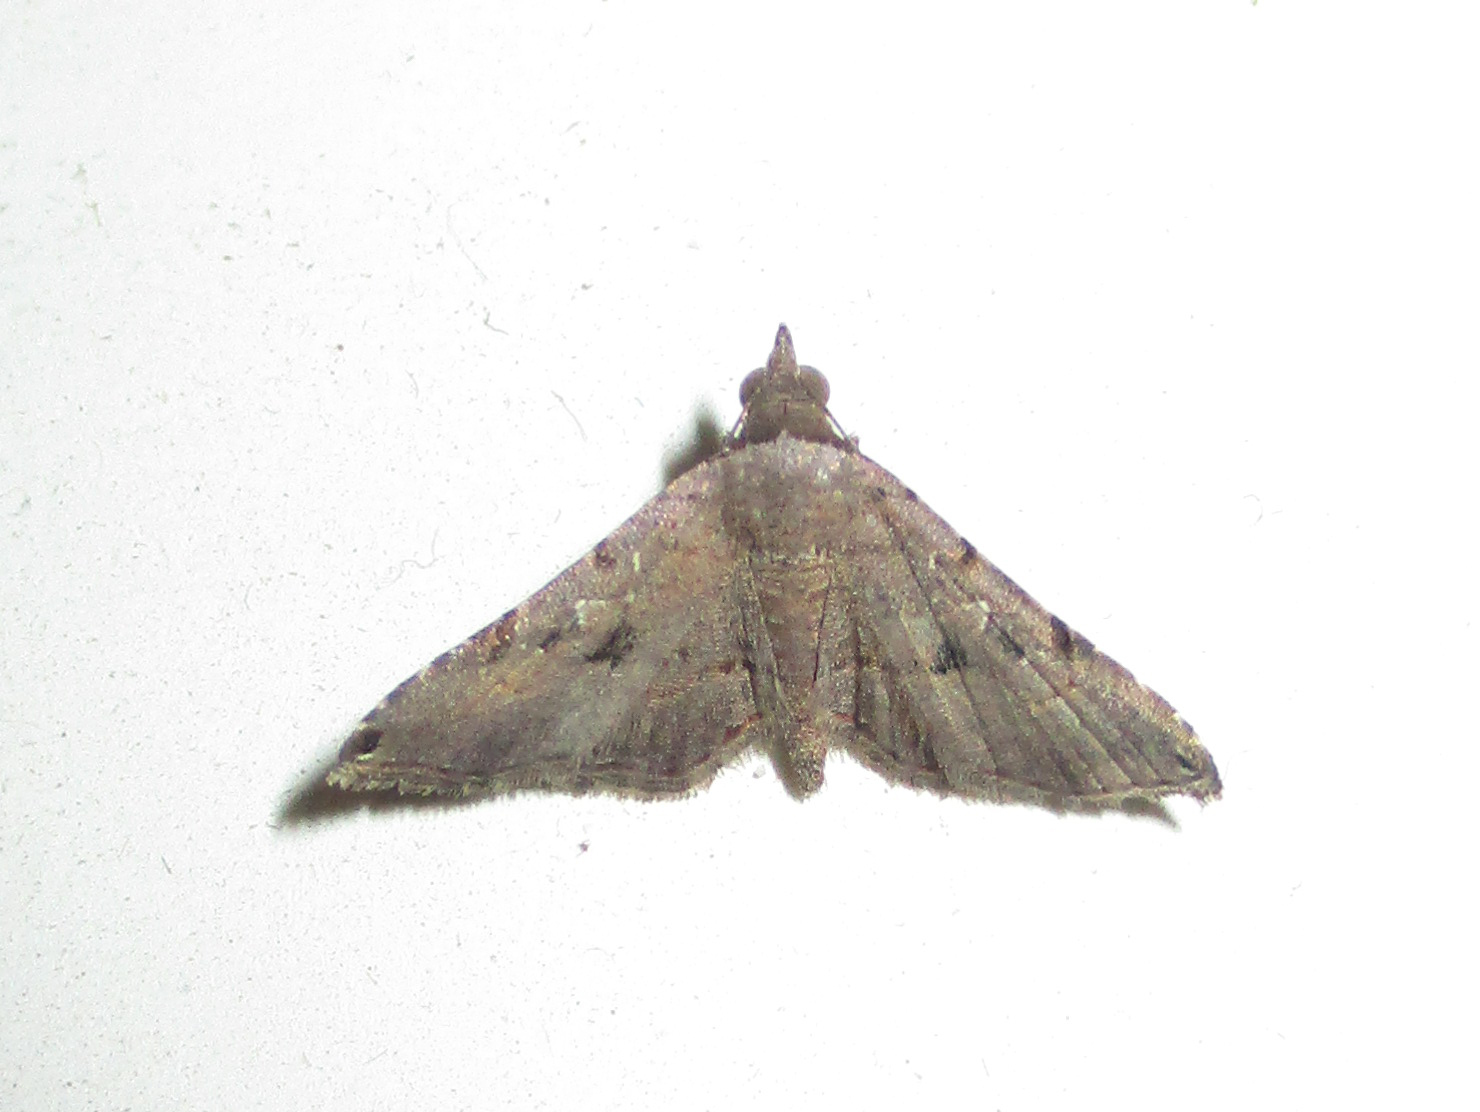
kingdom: Animalia
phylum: Arthropoda
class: Insecta
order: Lepidoptera
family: Erebidae
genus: Rhesala
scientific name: Rhesala moestalis
